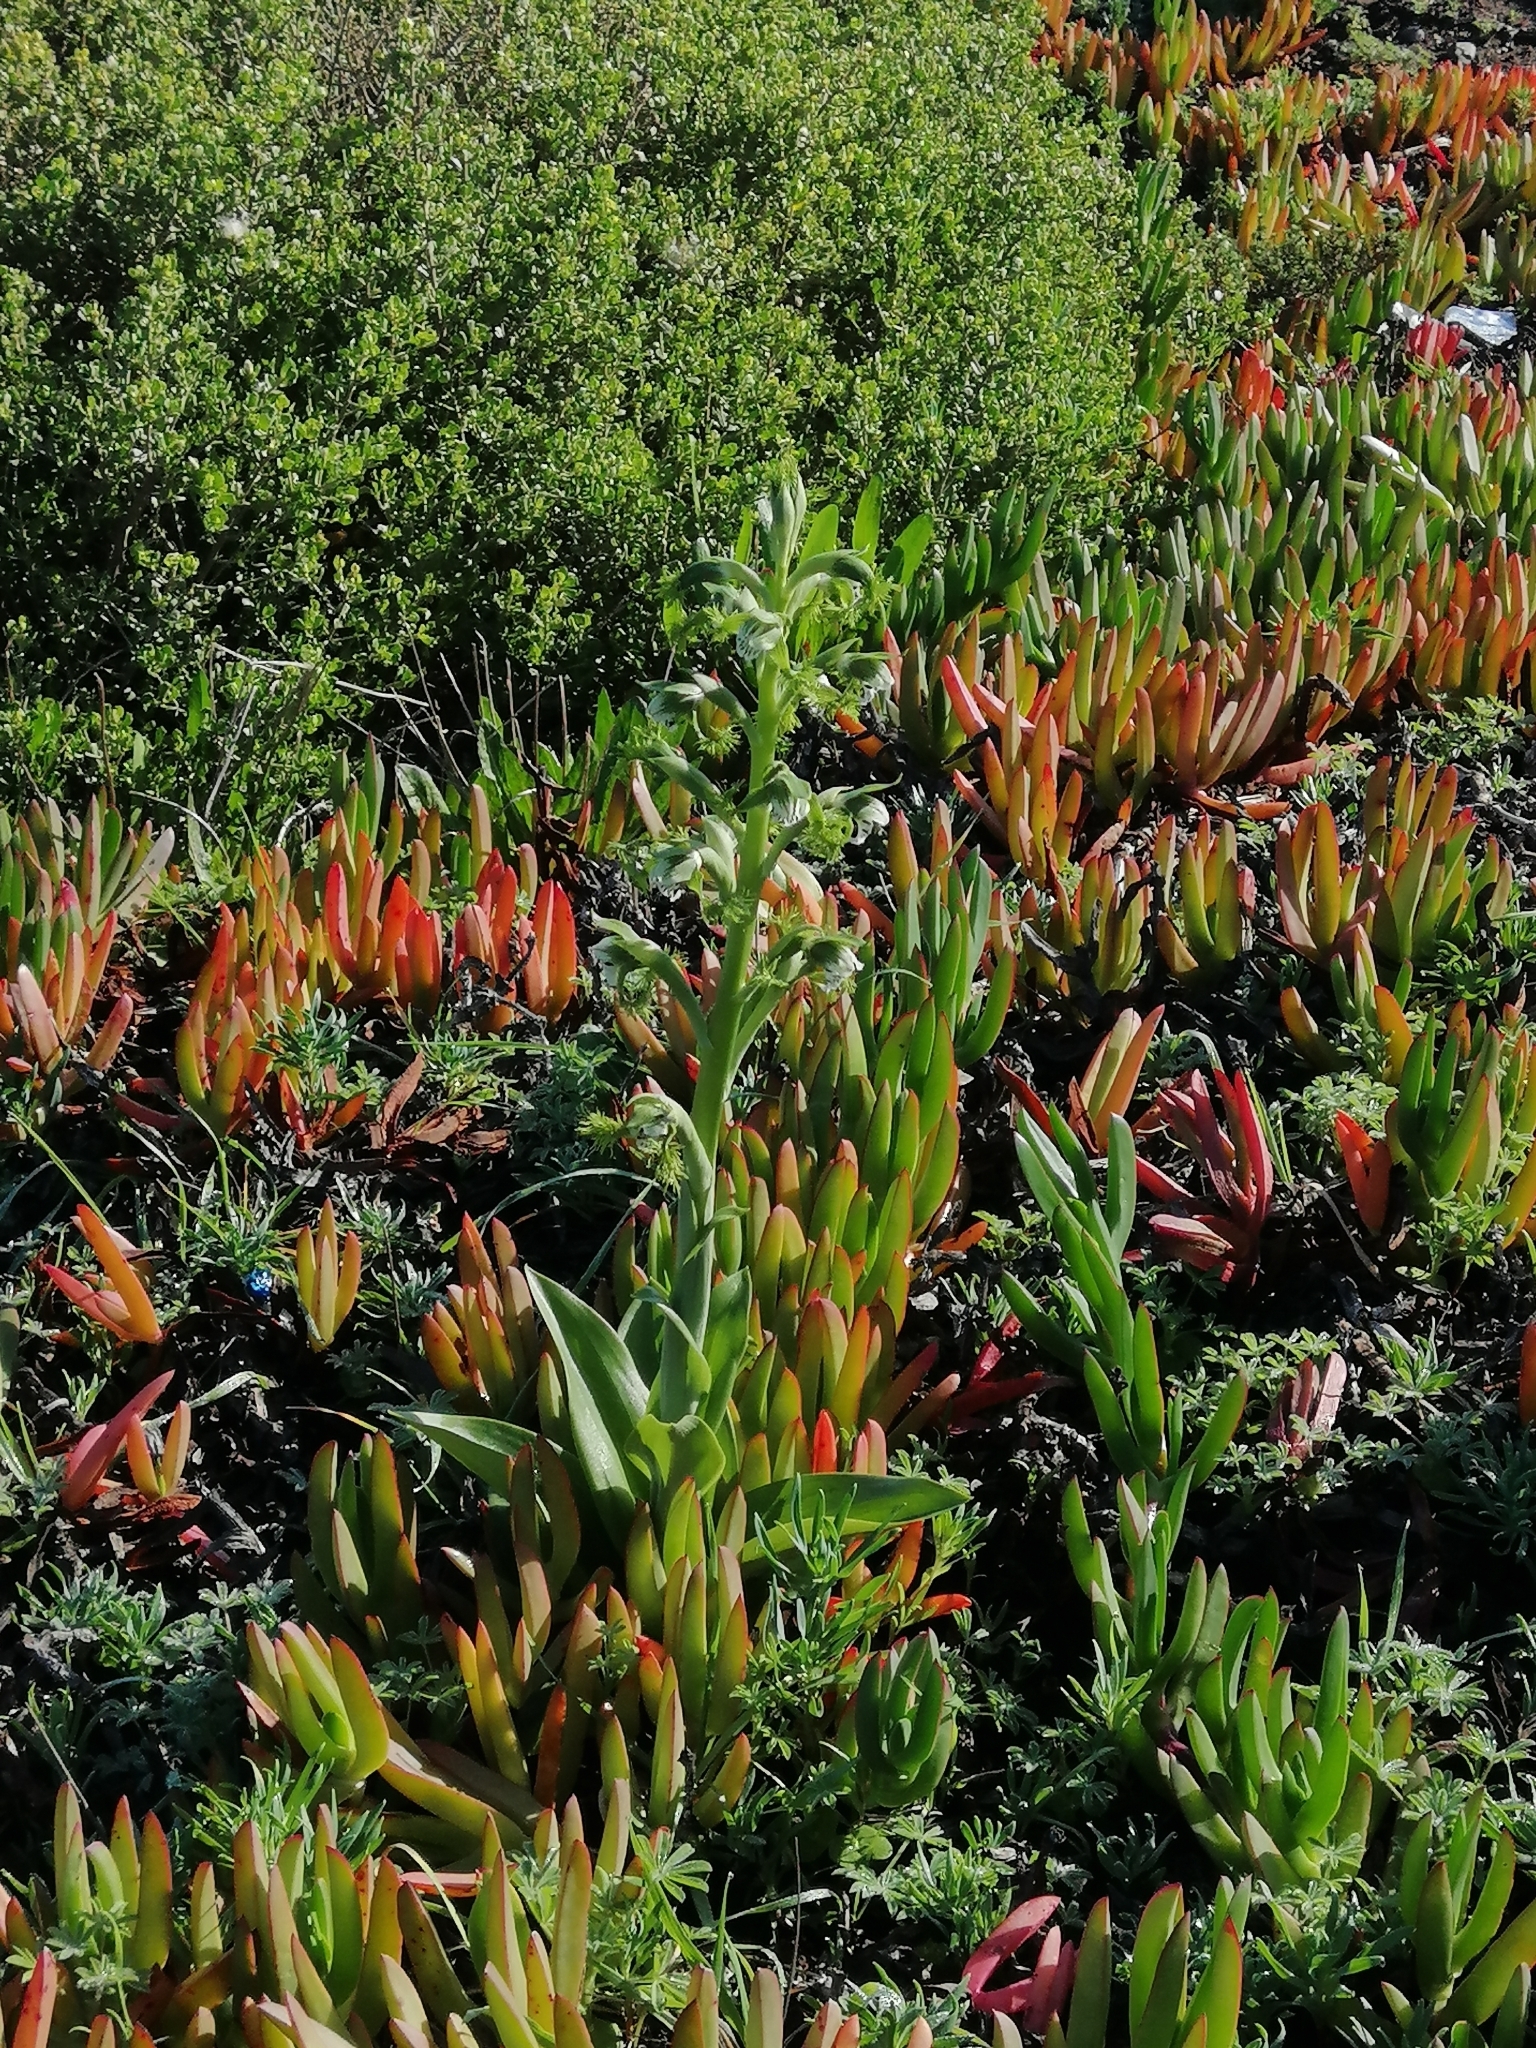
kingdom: Plantae
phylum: Tracheophyta
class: Liliopsida
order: Asparagales
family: Orchidaceae
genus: Bipinnula
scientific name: Bipinnula fimbriata
